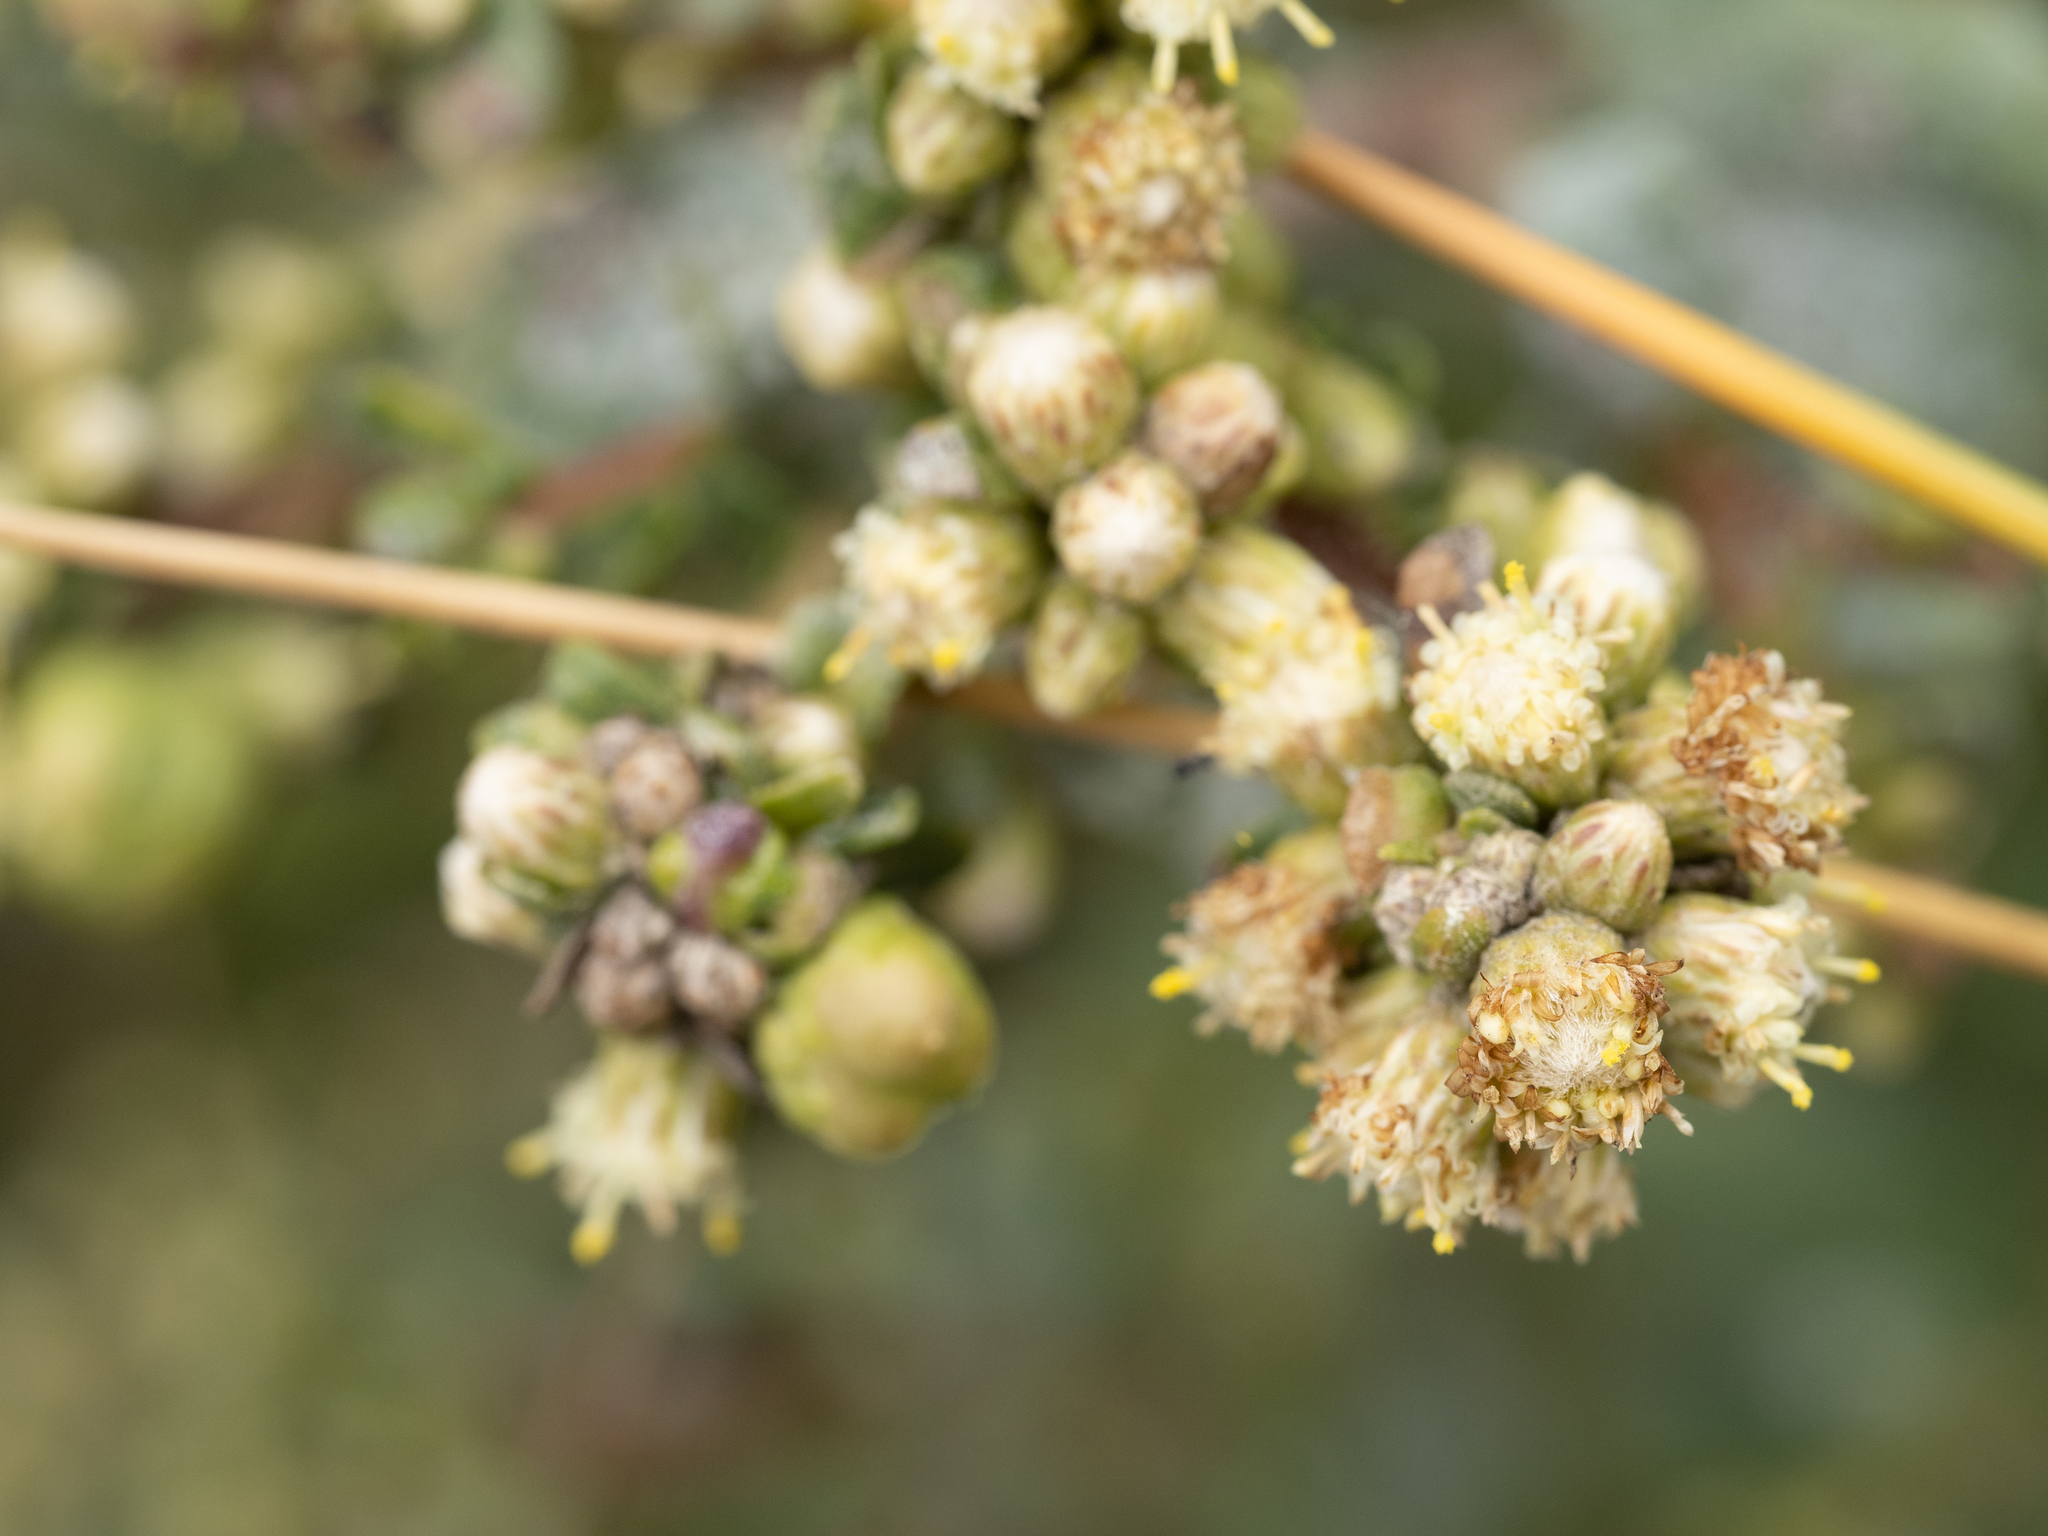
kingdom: Plantae
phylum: Tracheophyta
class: Magnoliopsida
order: Asterales
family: Asteraceae
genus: Baccharis
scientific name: Baccharis pilularis
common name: Coyotebrush
